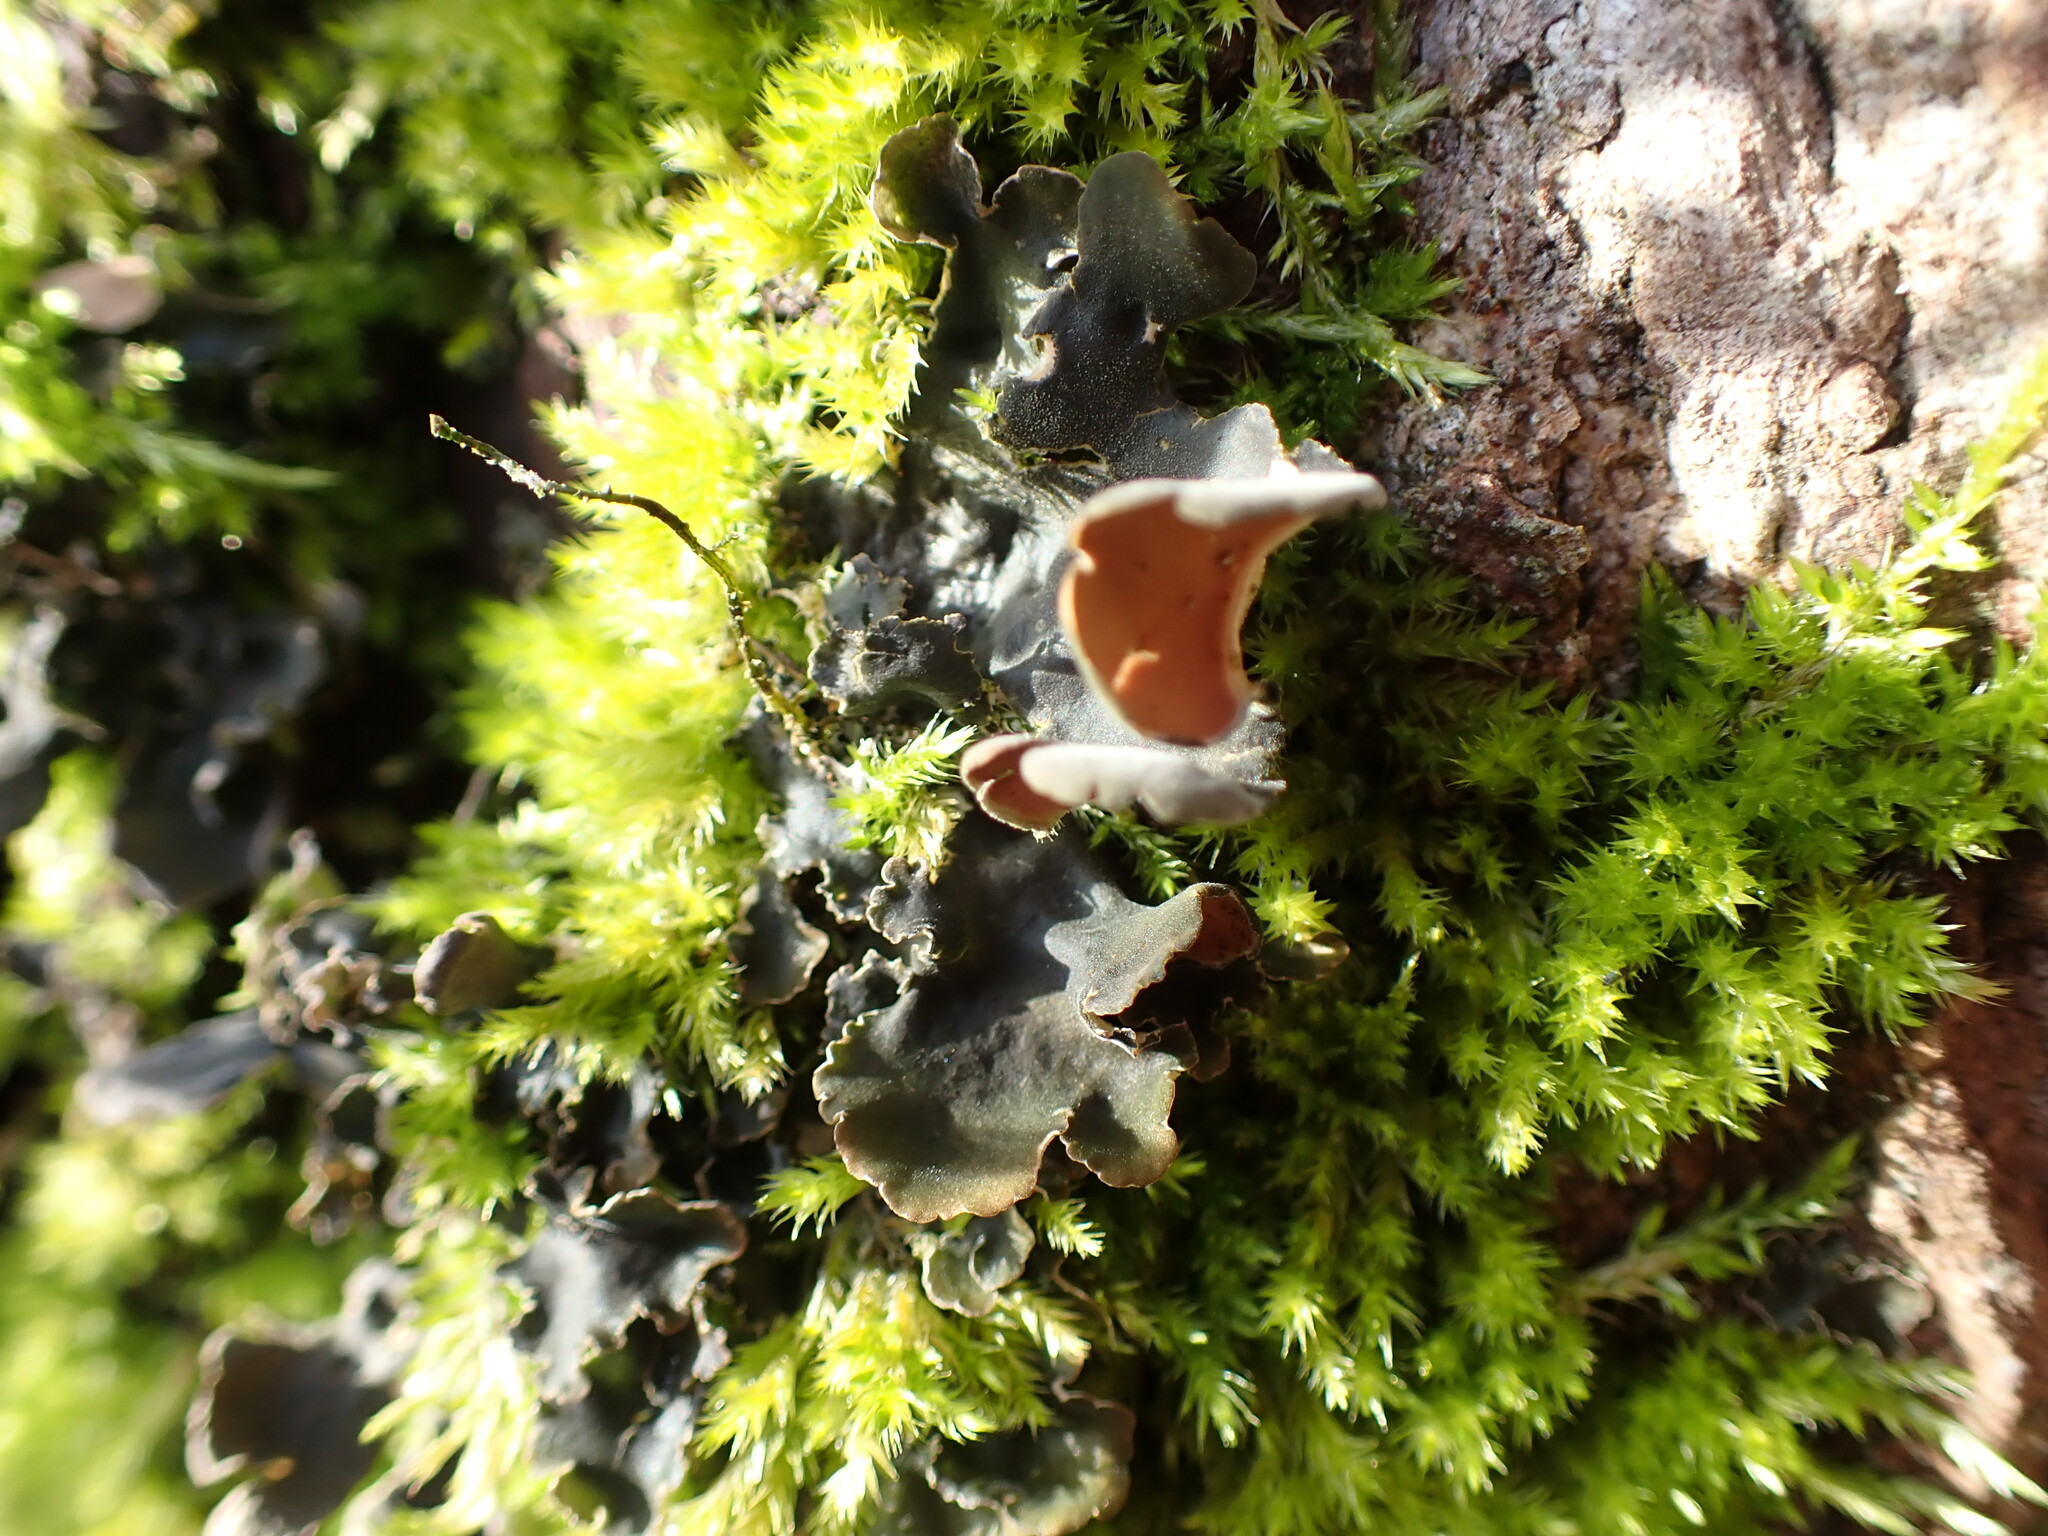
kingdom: Fungi
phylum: Ascomycota
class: Lecanoromycetes
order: Peltigerales
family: Nephromataceae
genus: Nephroma
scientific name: Nephroma resupinatum
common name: Pimpled kidney lichen
